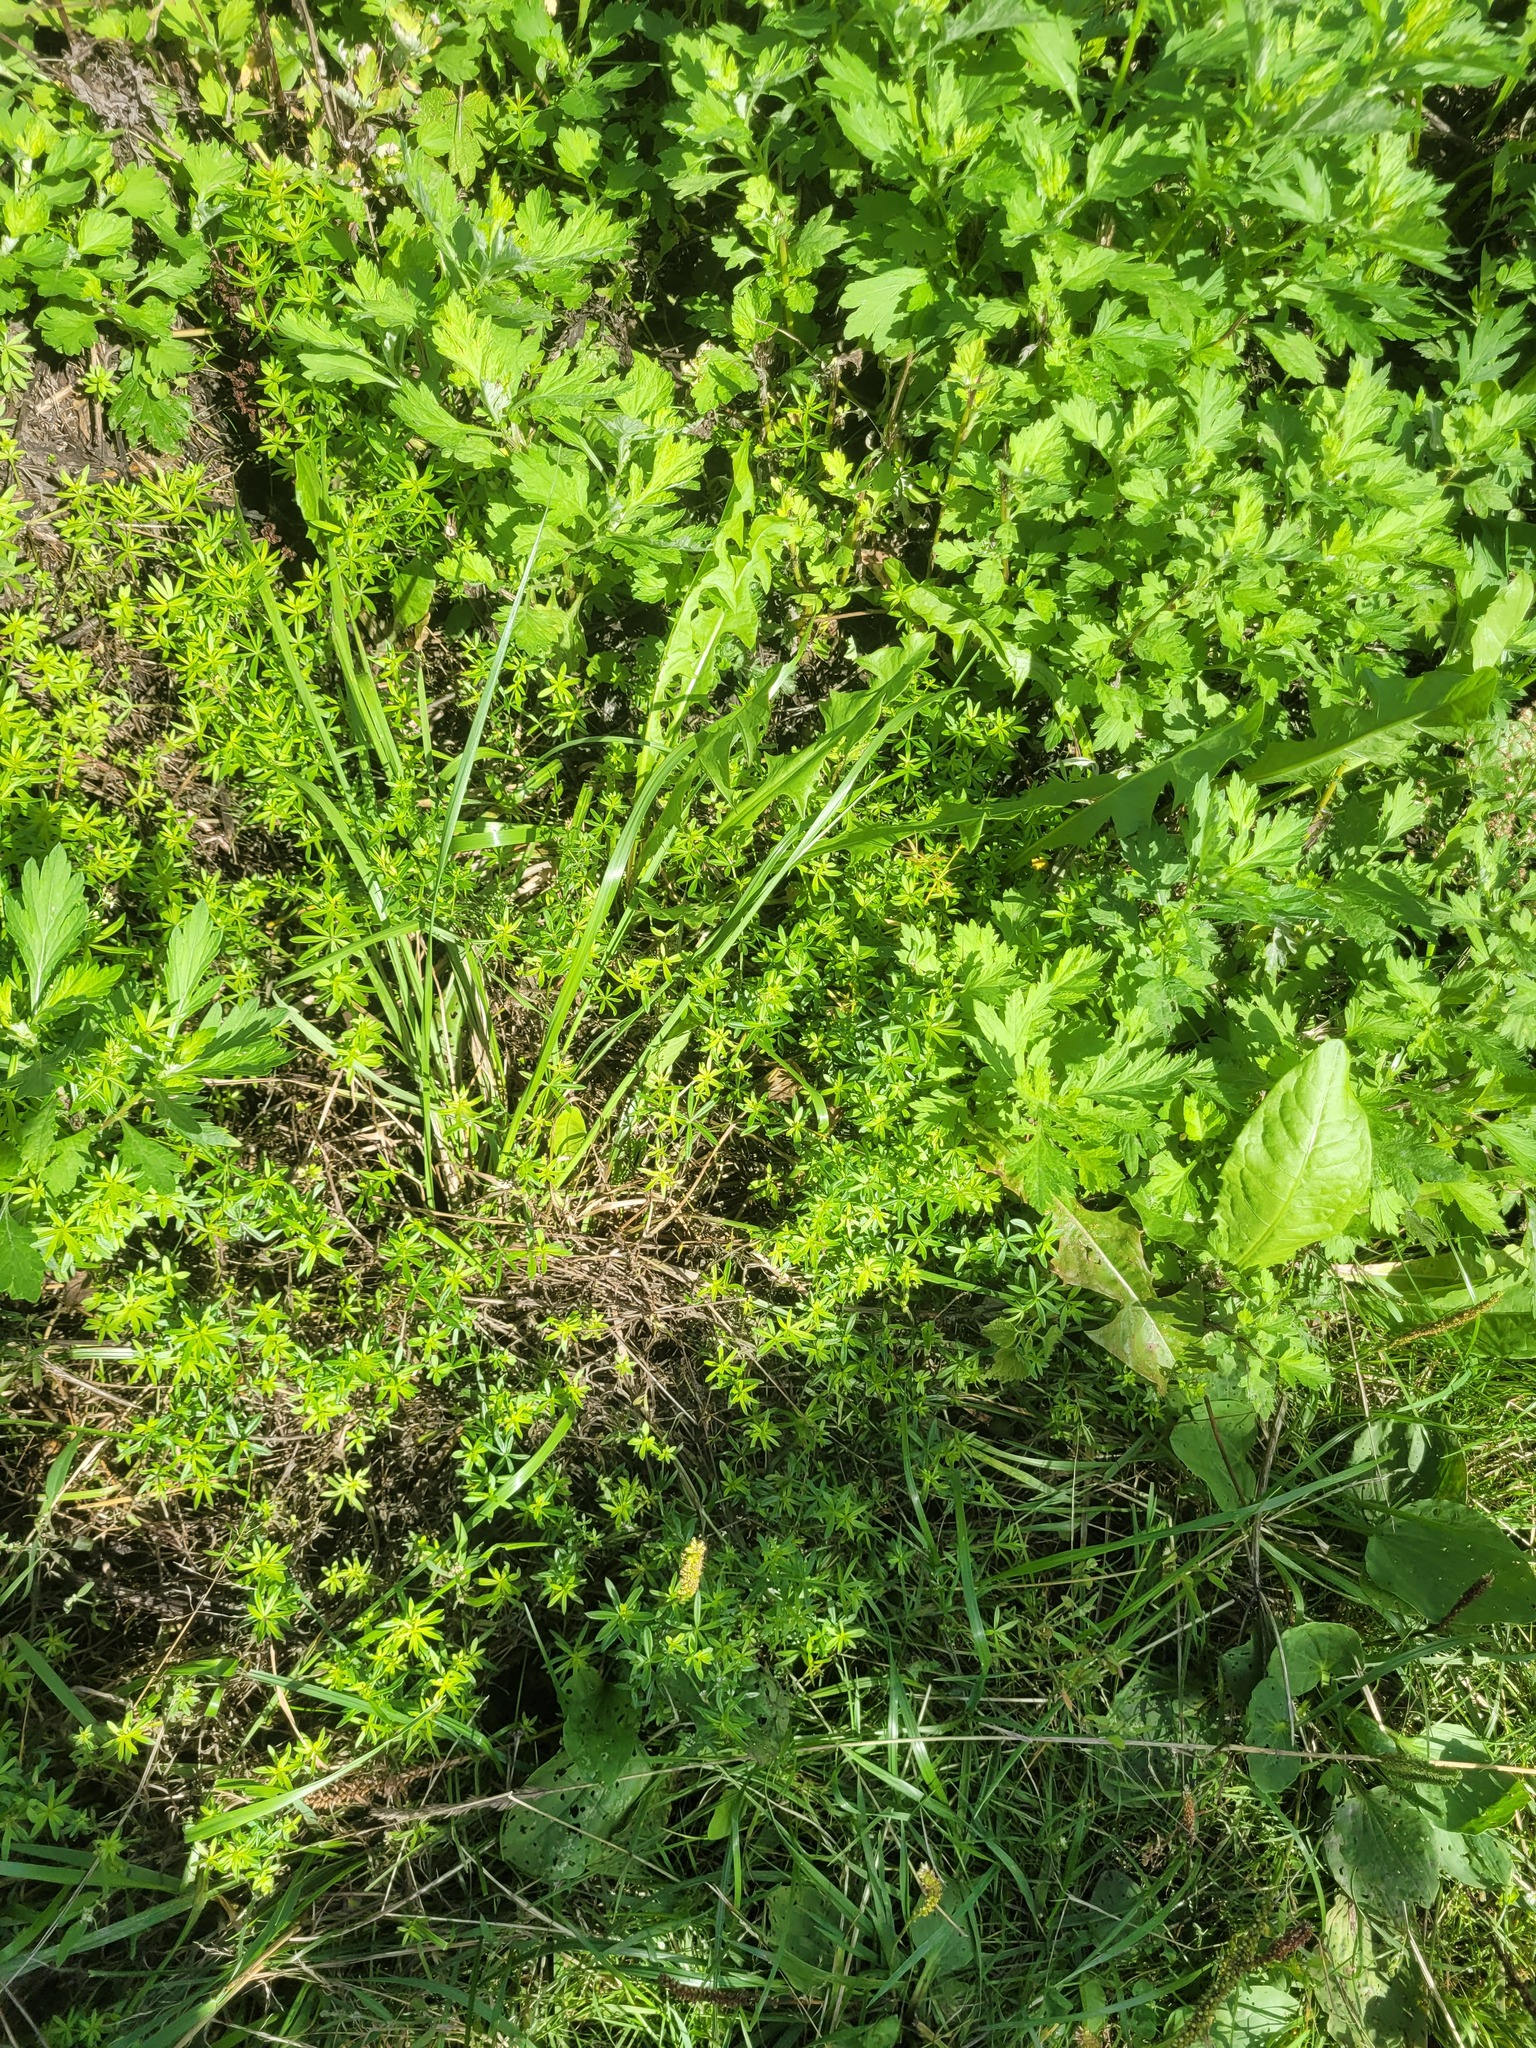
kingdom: Plantae
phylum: Tracheophyta
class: Magnoliopsida
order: Gentianales
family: Rubiaceae
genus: Galium
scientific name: Galium mollugo
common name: Hedge bedstraw
